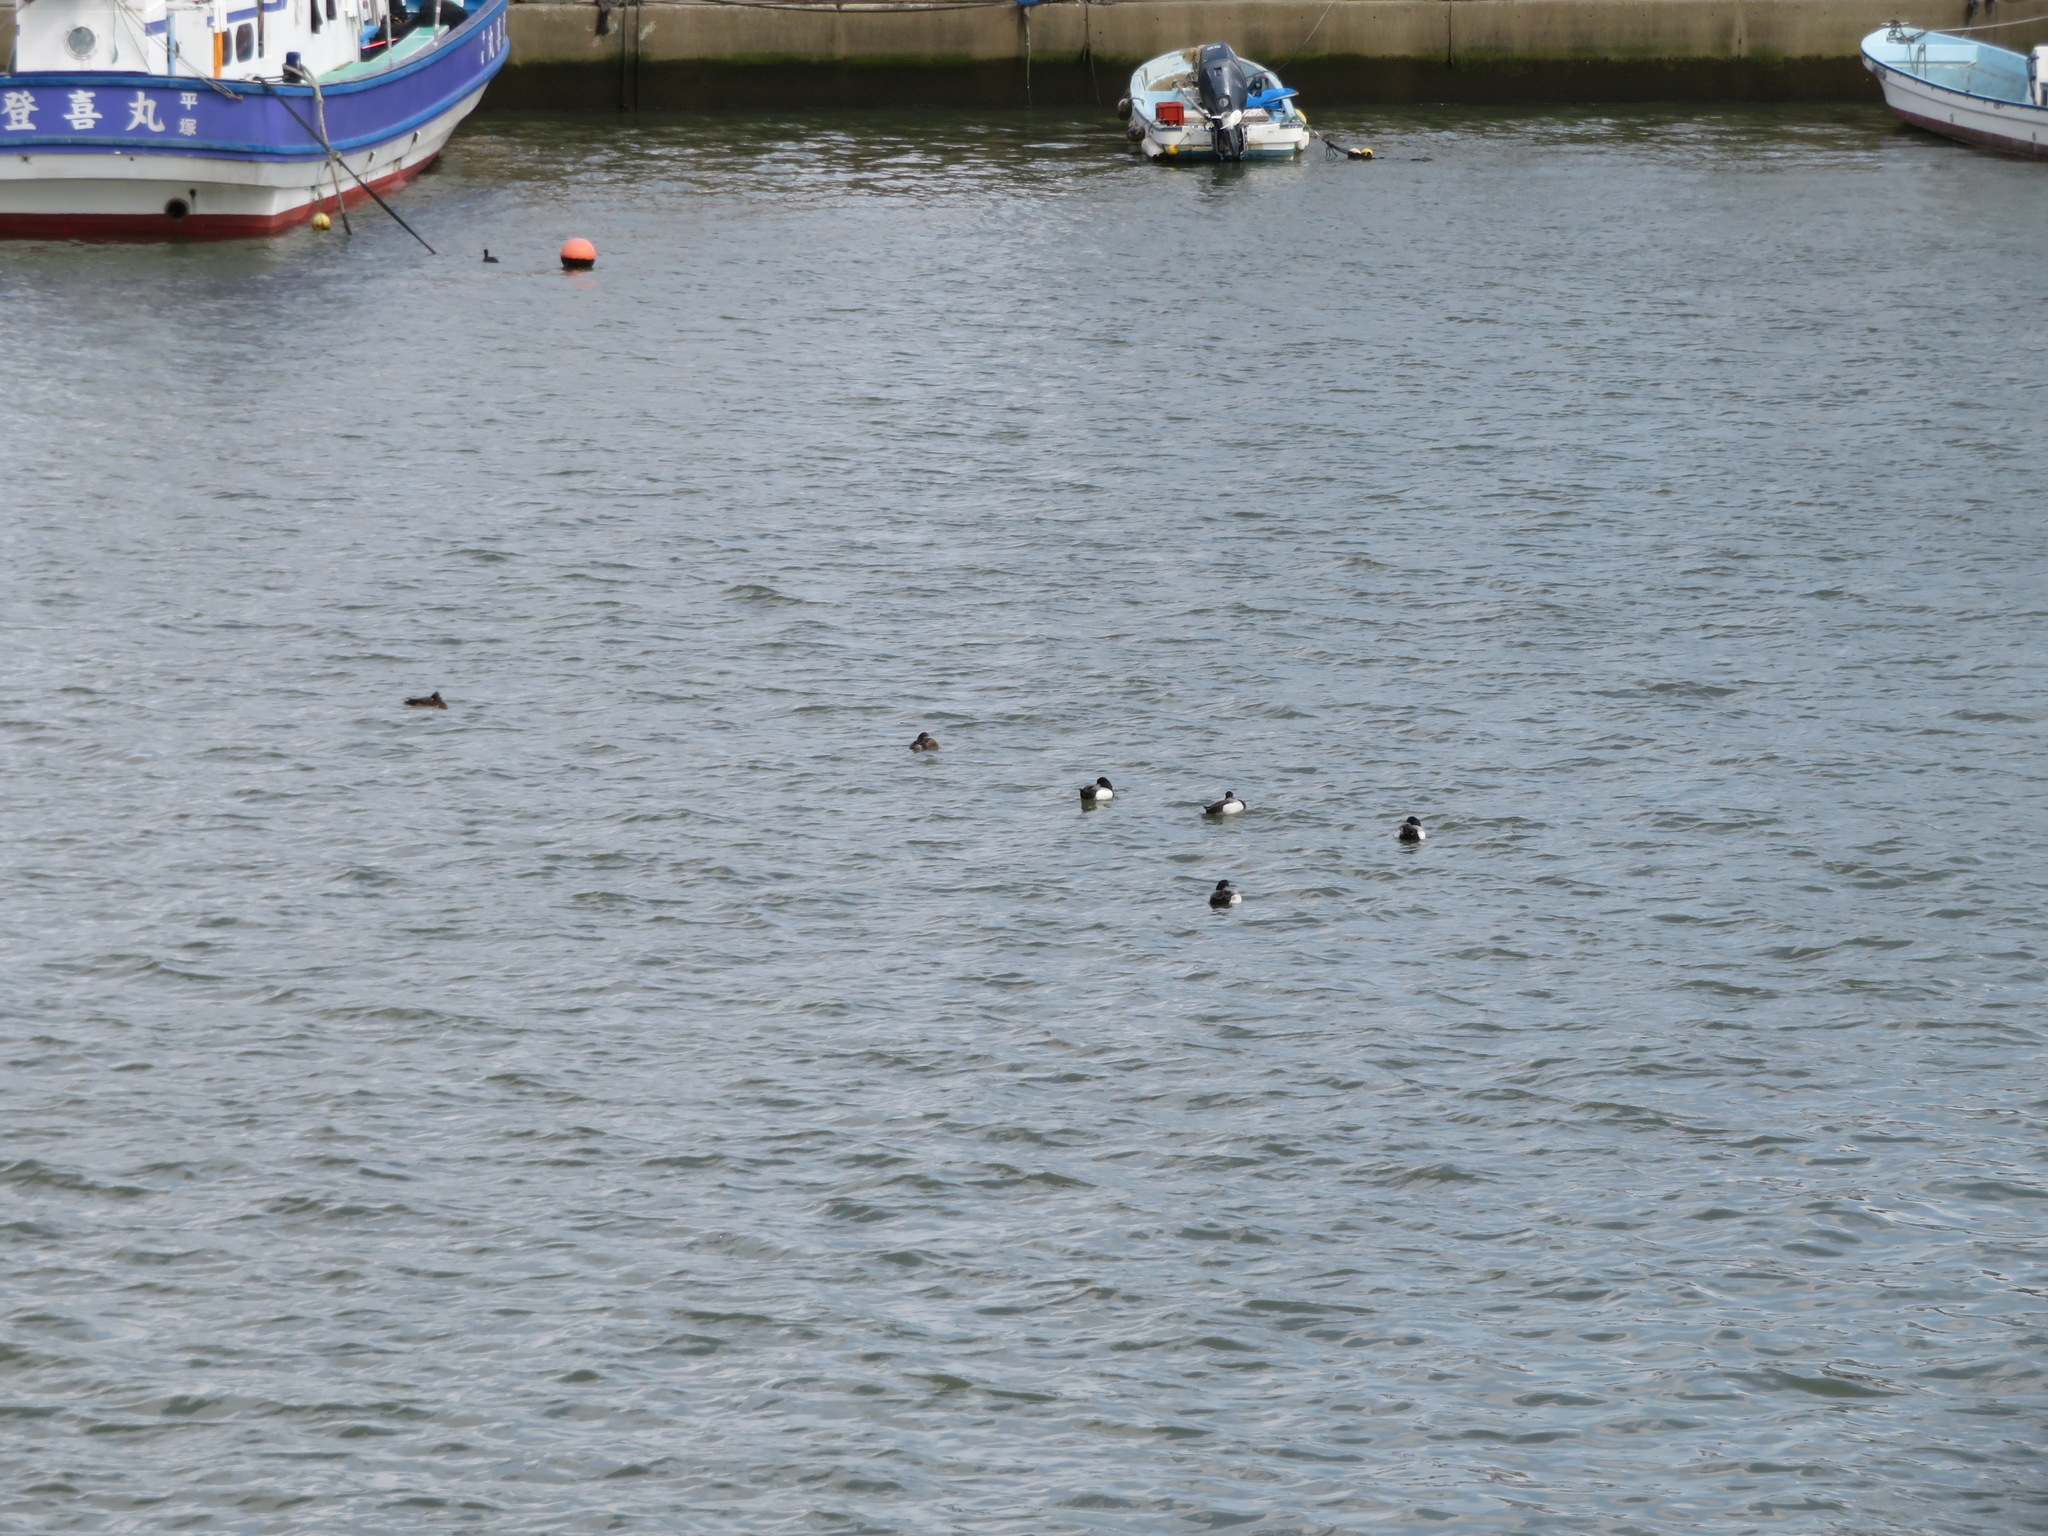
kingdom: Animalia
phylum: Chordata
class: Aves
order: Anseriformes
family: Anatidae
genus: Aythya
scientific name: Aythya marila
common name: Greater scaup
